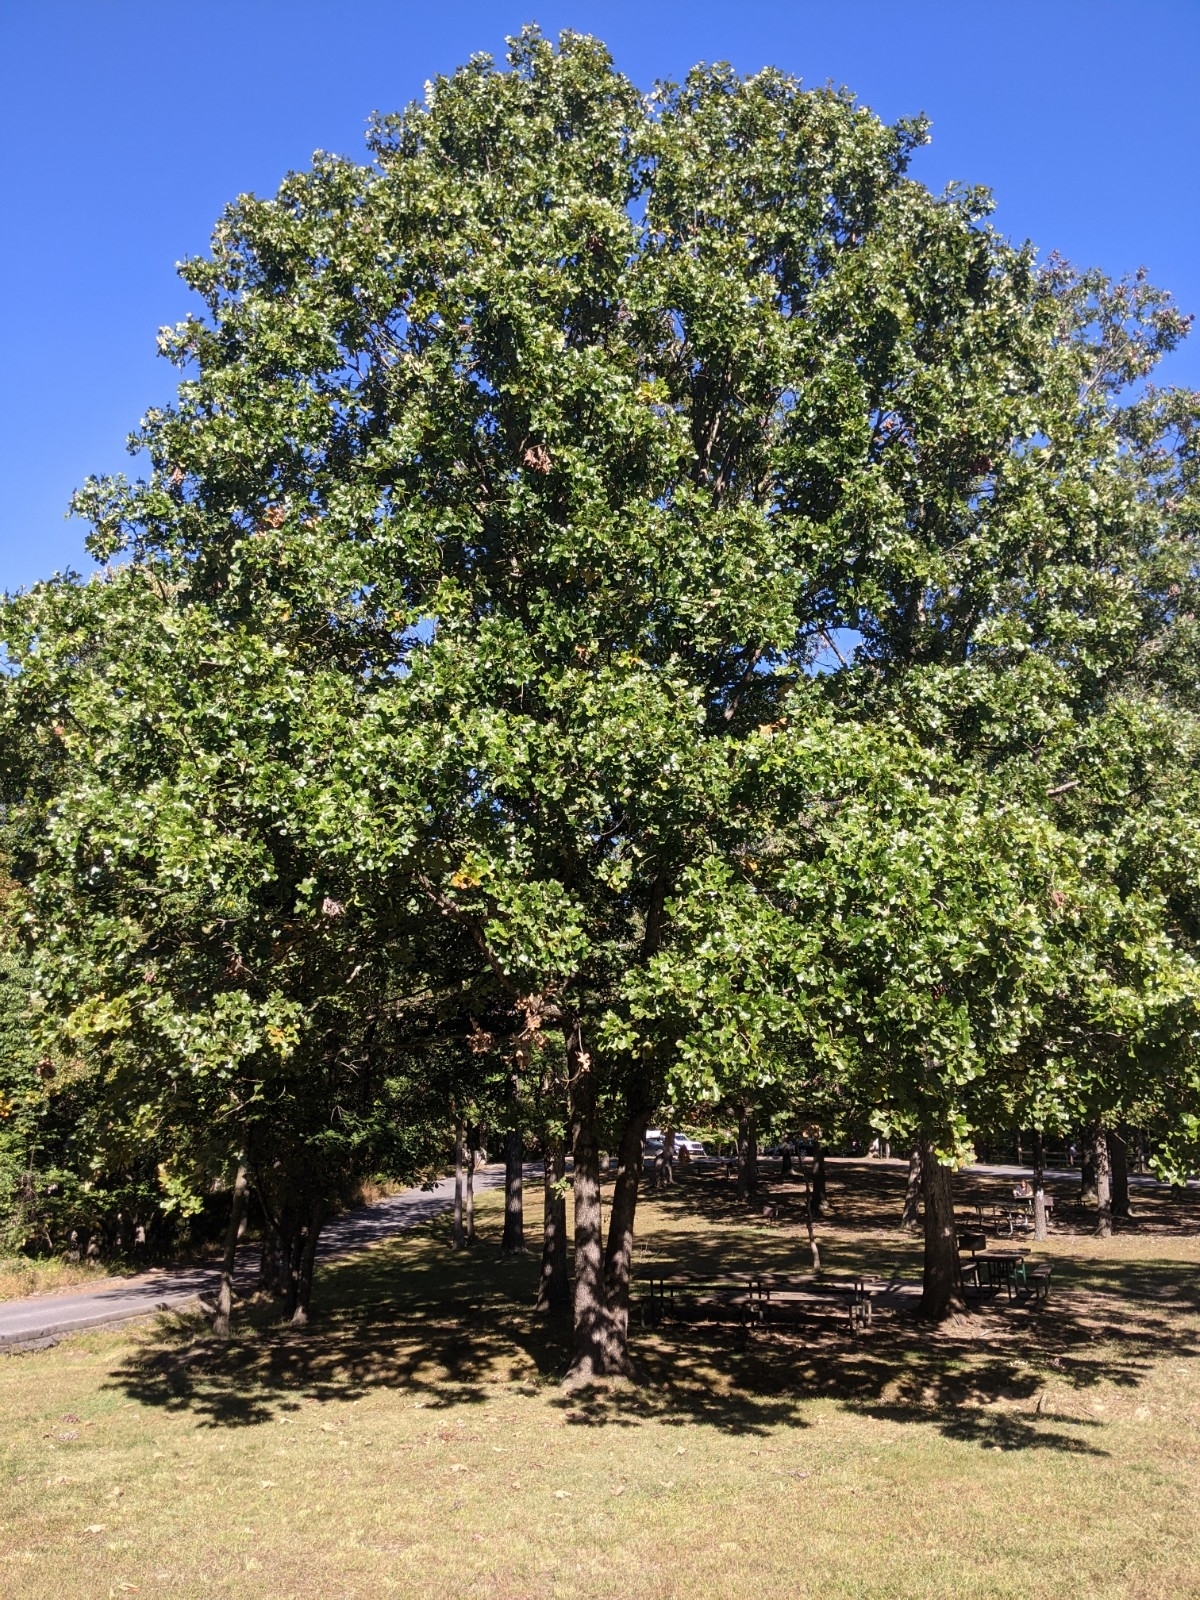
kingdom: Plantae
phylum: Tracheophyta
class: Magnoliopsida
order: Fagales
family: Fagaceae
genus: Quercus
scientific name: Quercus stellata
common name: Post oak
